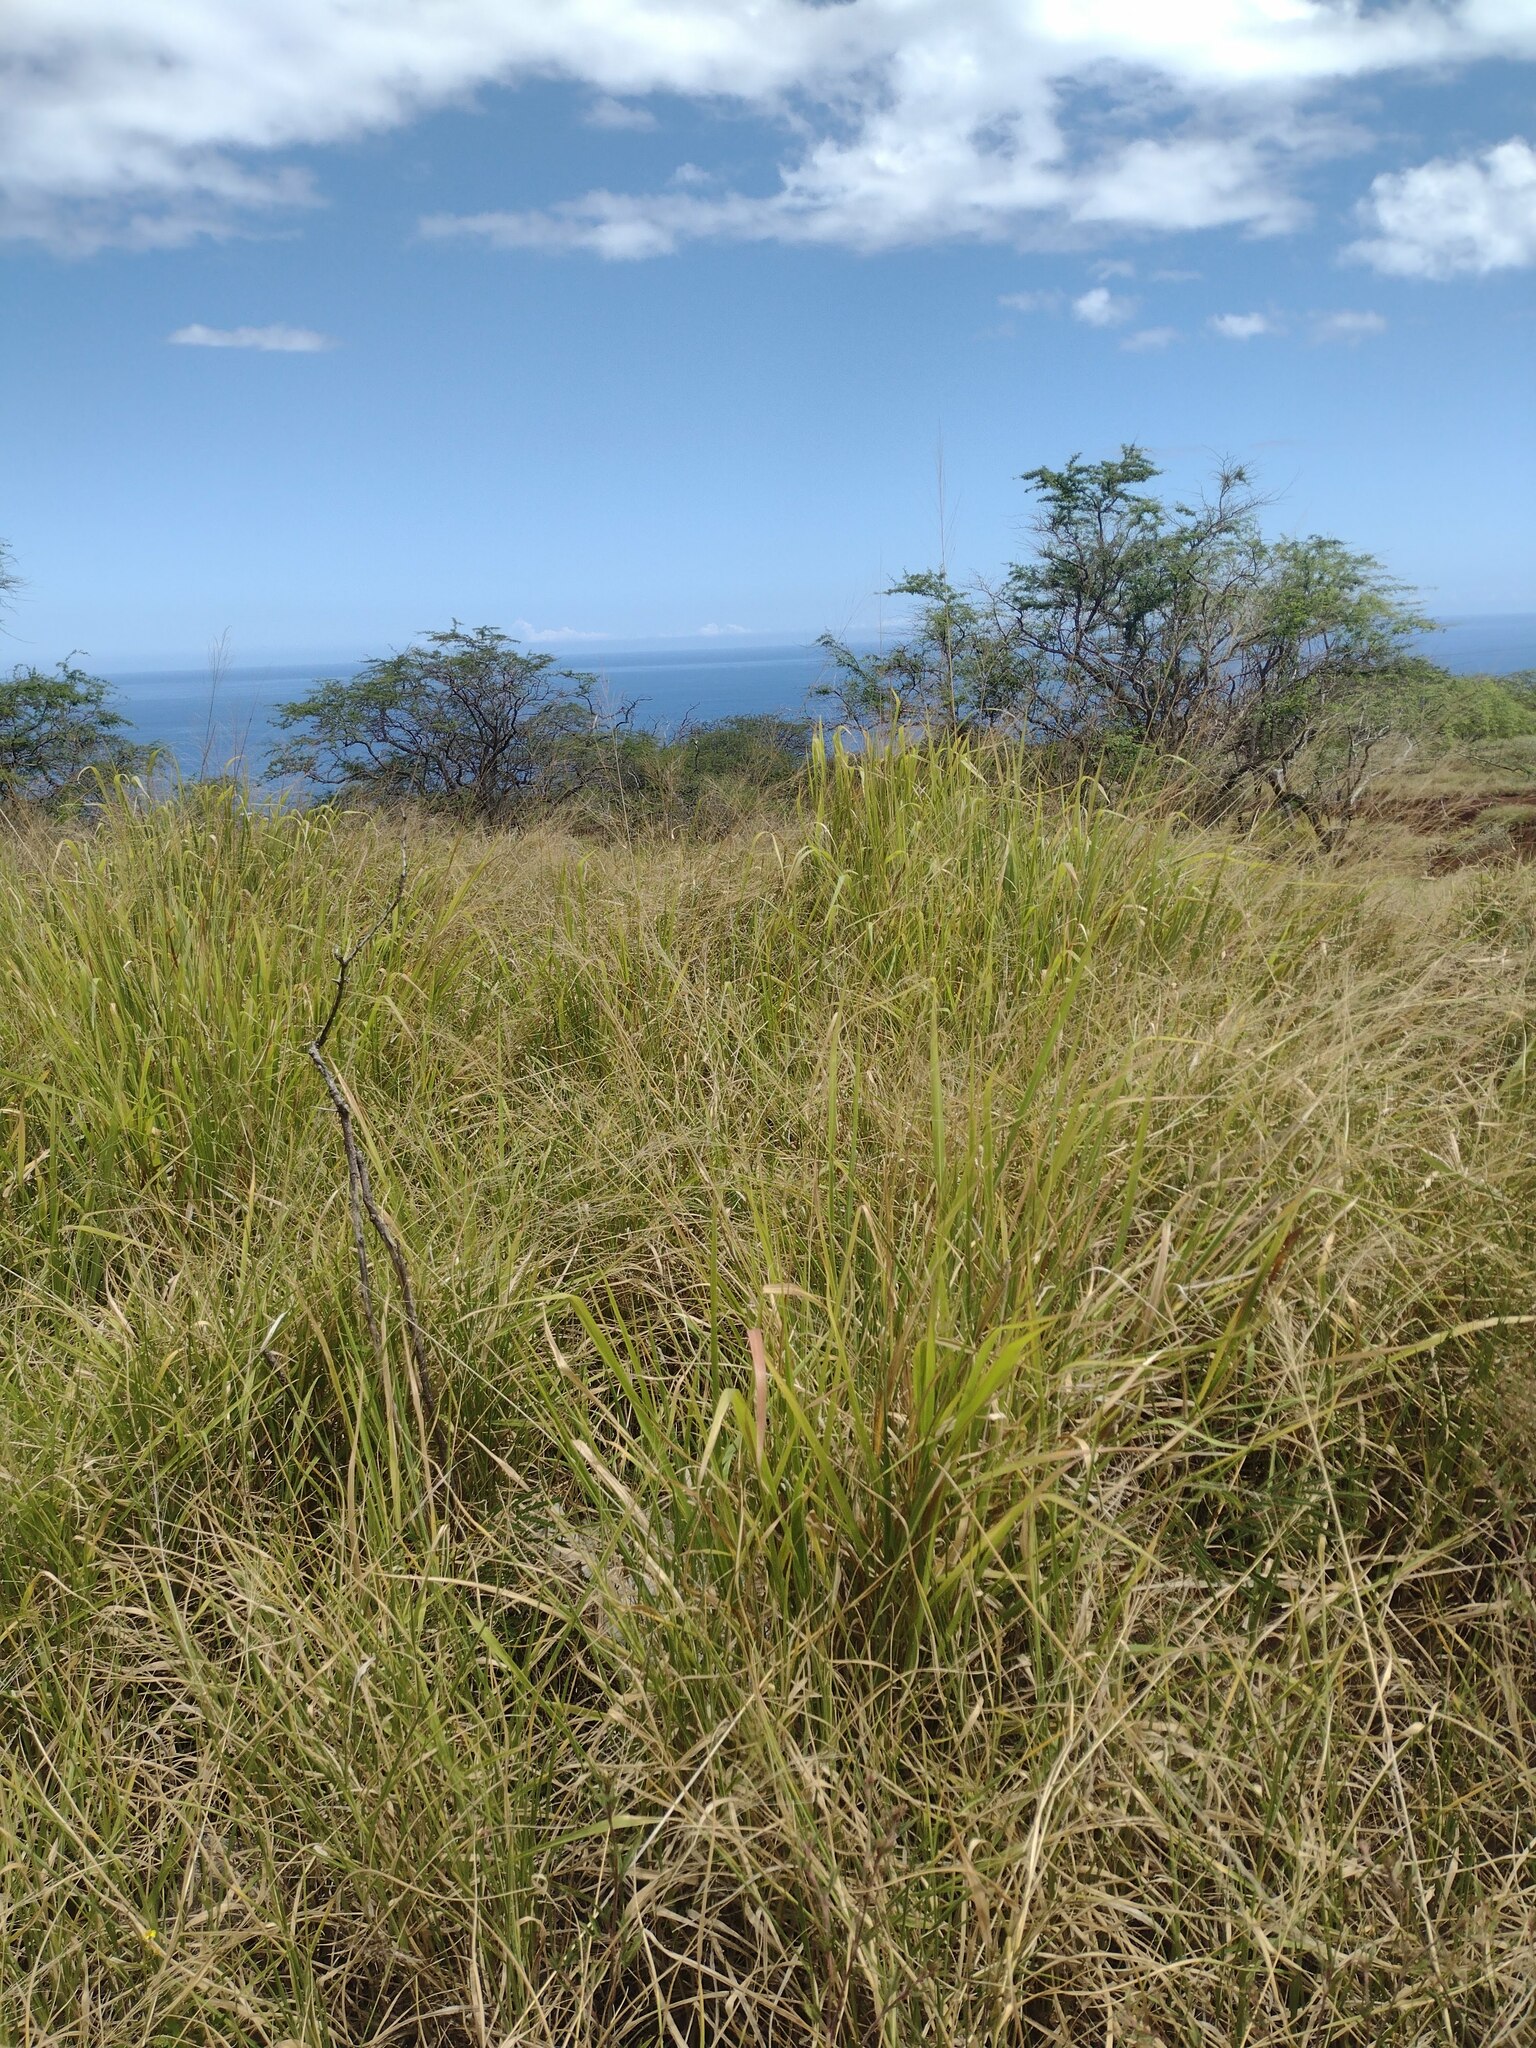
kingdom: Plantae
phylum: Tracheophyta
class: Liliopsida
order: Poales
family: Poaceae
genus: Megathyrsus
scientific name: Megathyrsus maximus
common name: Guineagrass
